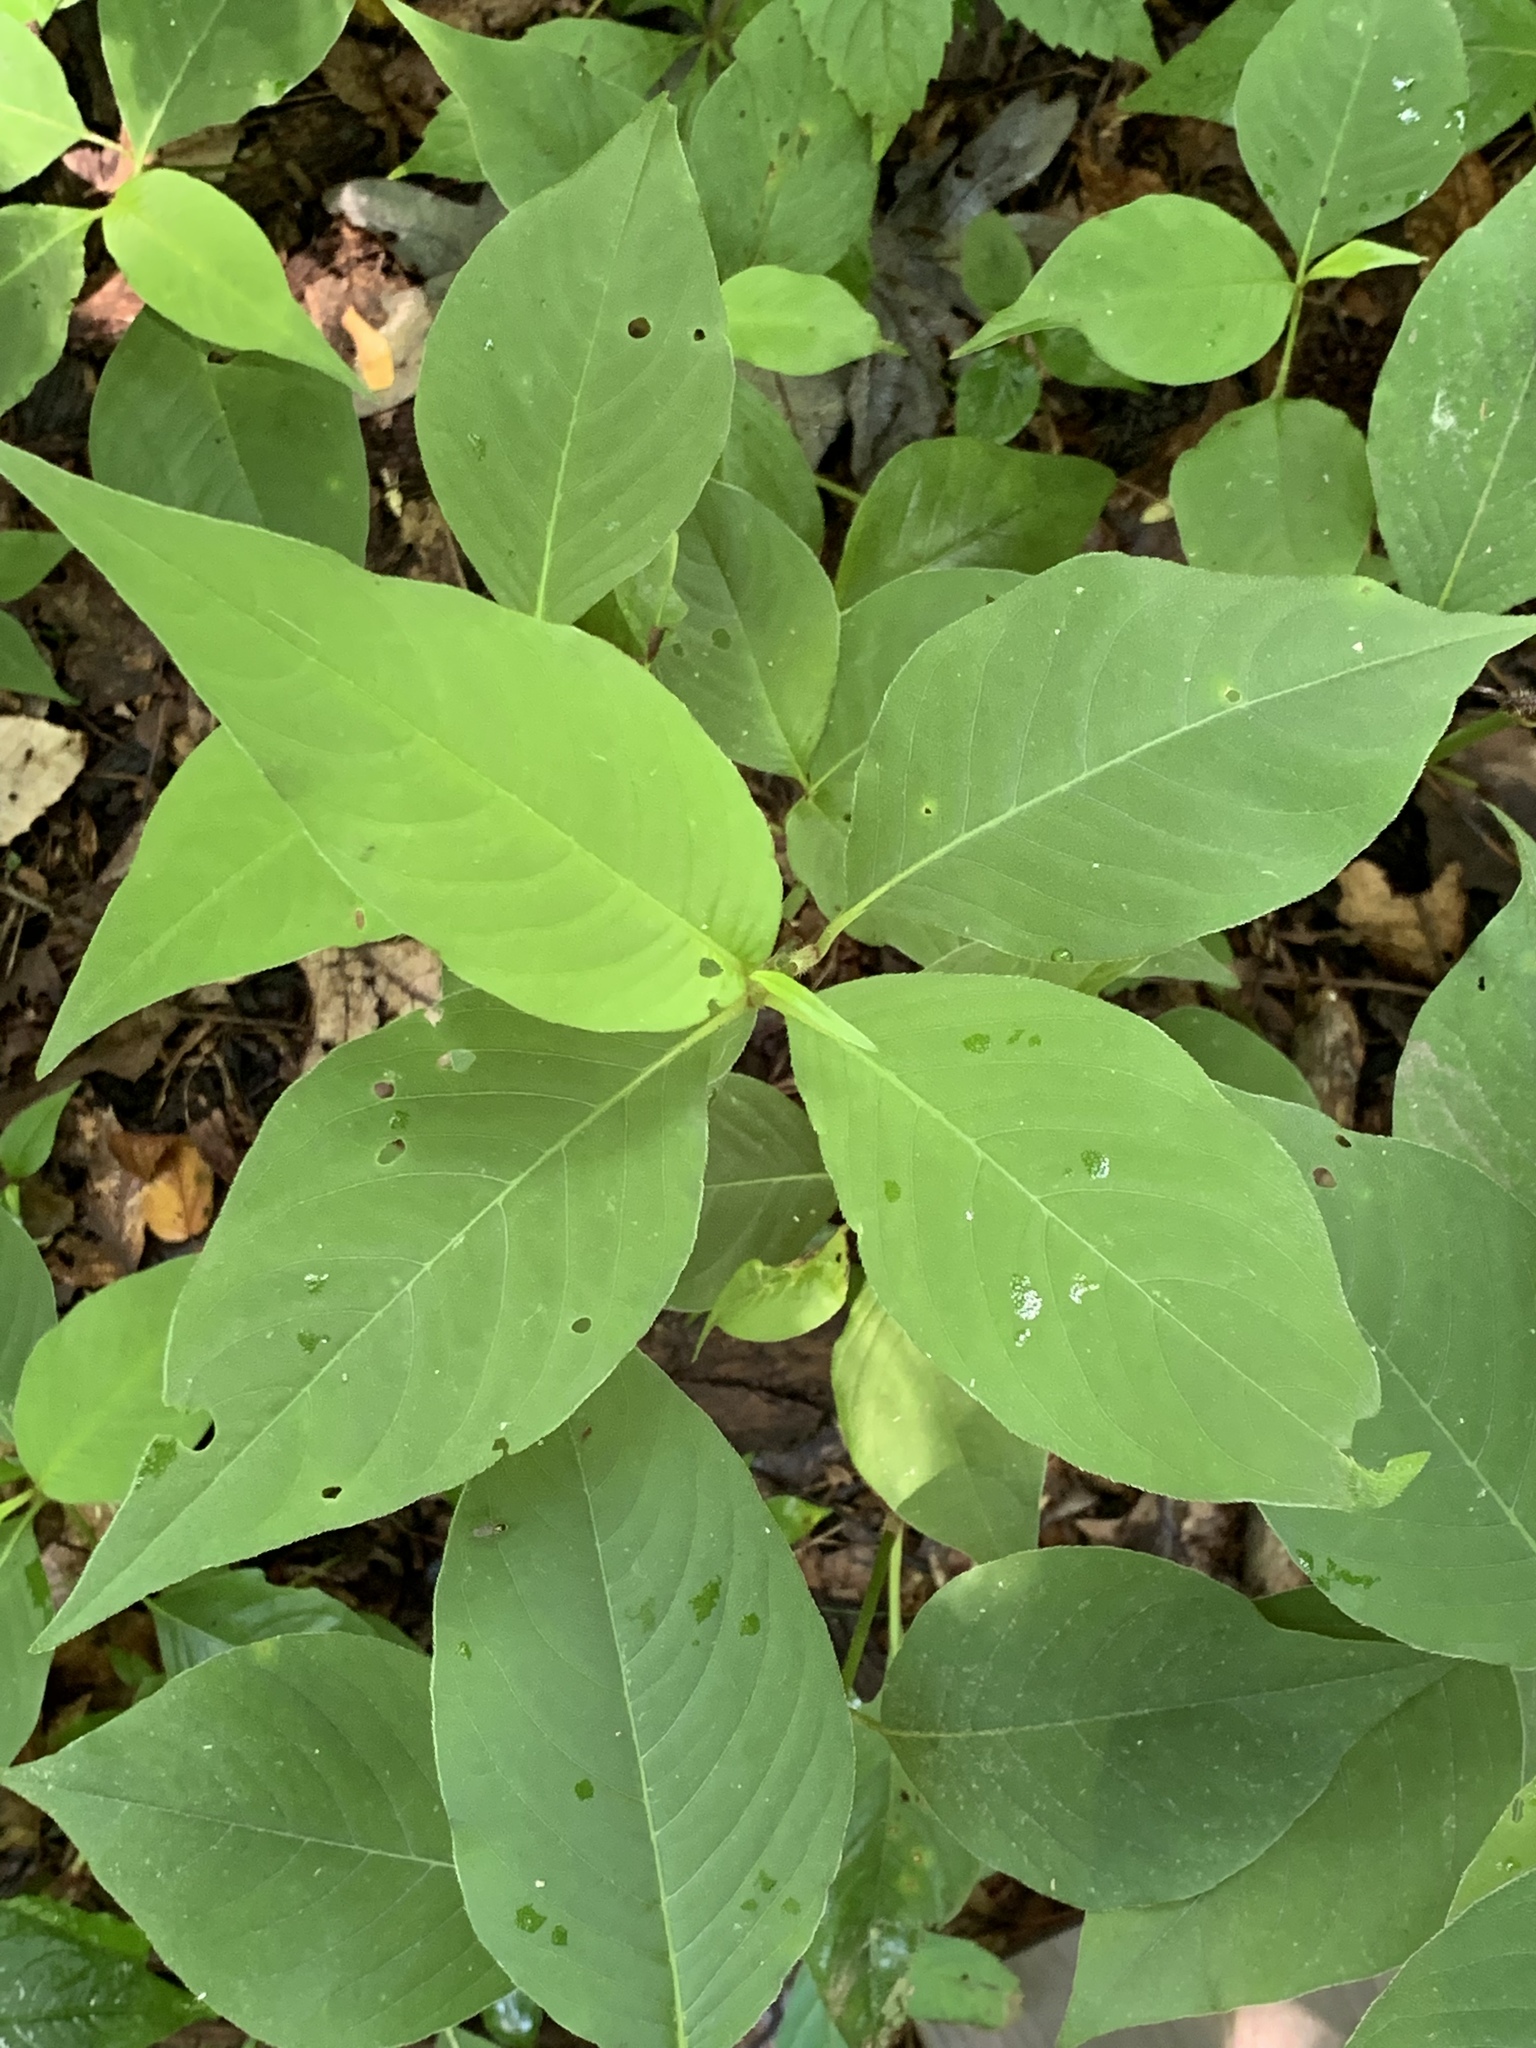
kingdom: Plantae
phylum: Tracheophyta
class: Magnoliopsida
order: Caryophyllales
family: Polygonaceae
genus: Persicaria
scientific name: Persicaria virginiana
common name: Jumpseed
